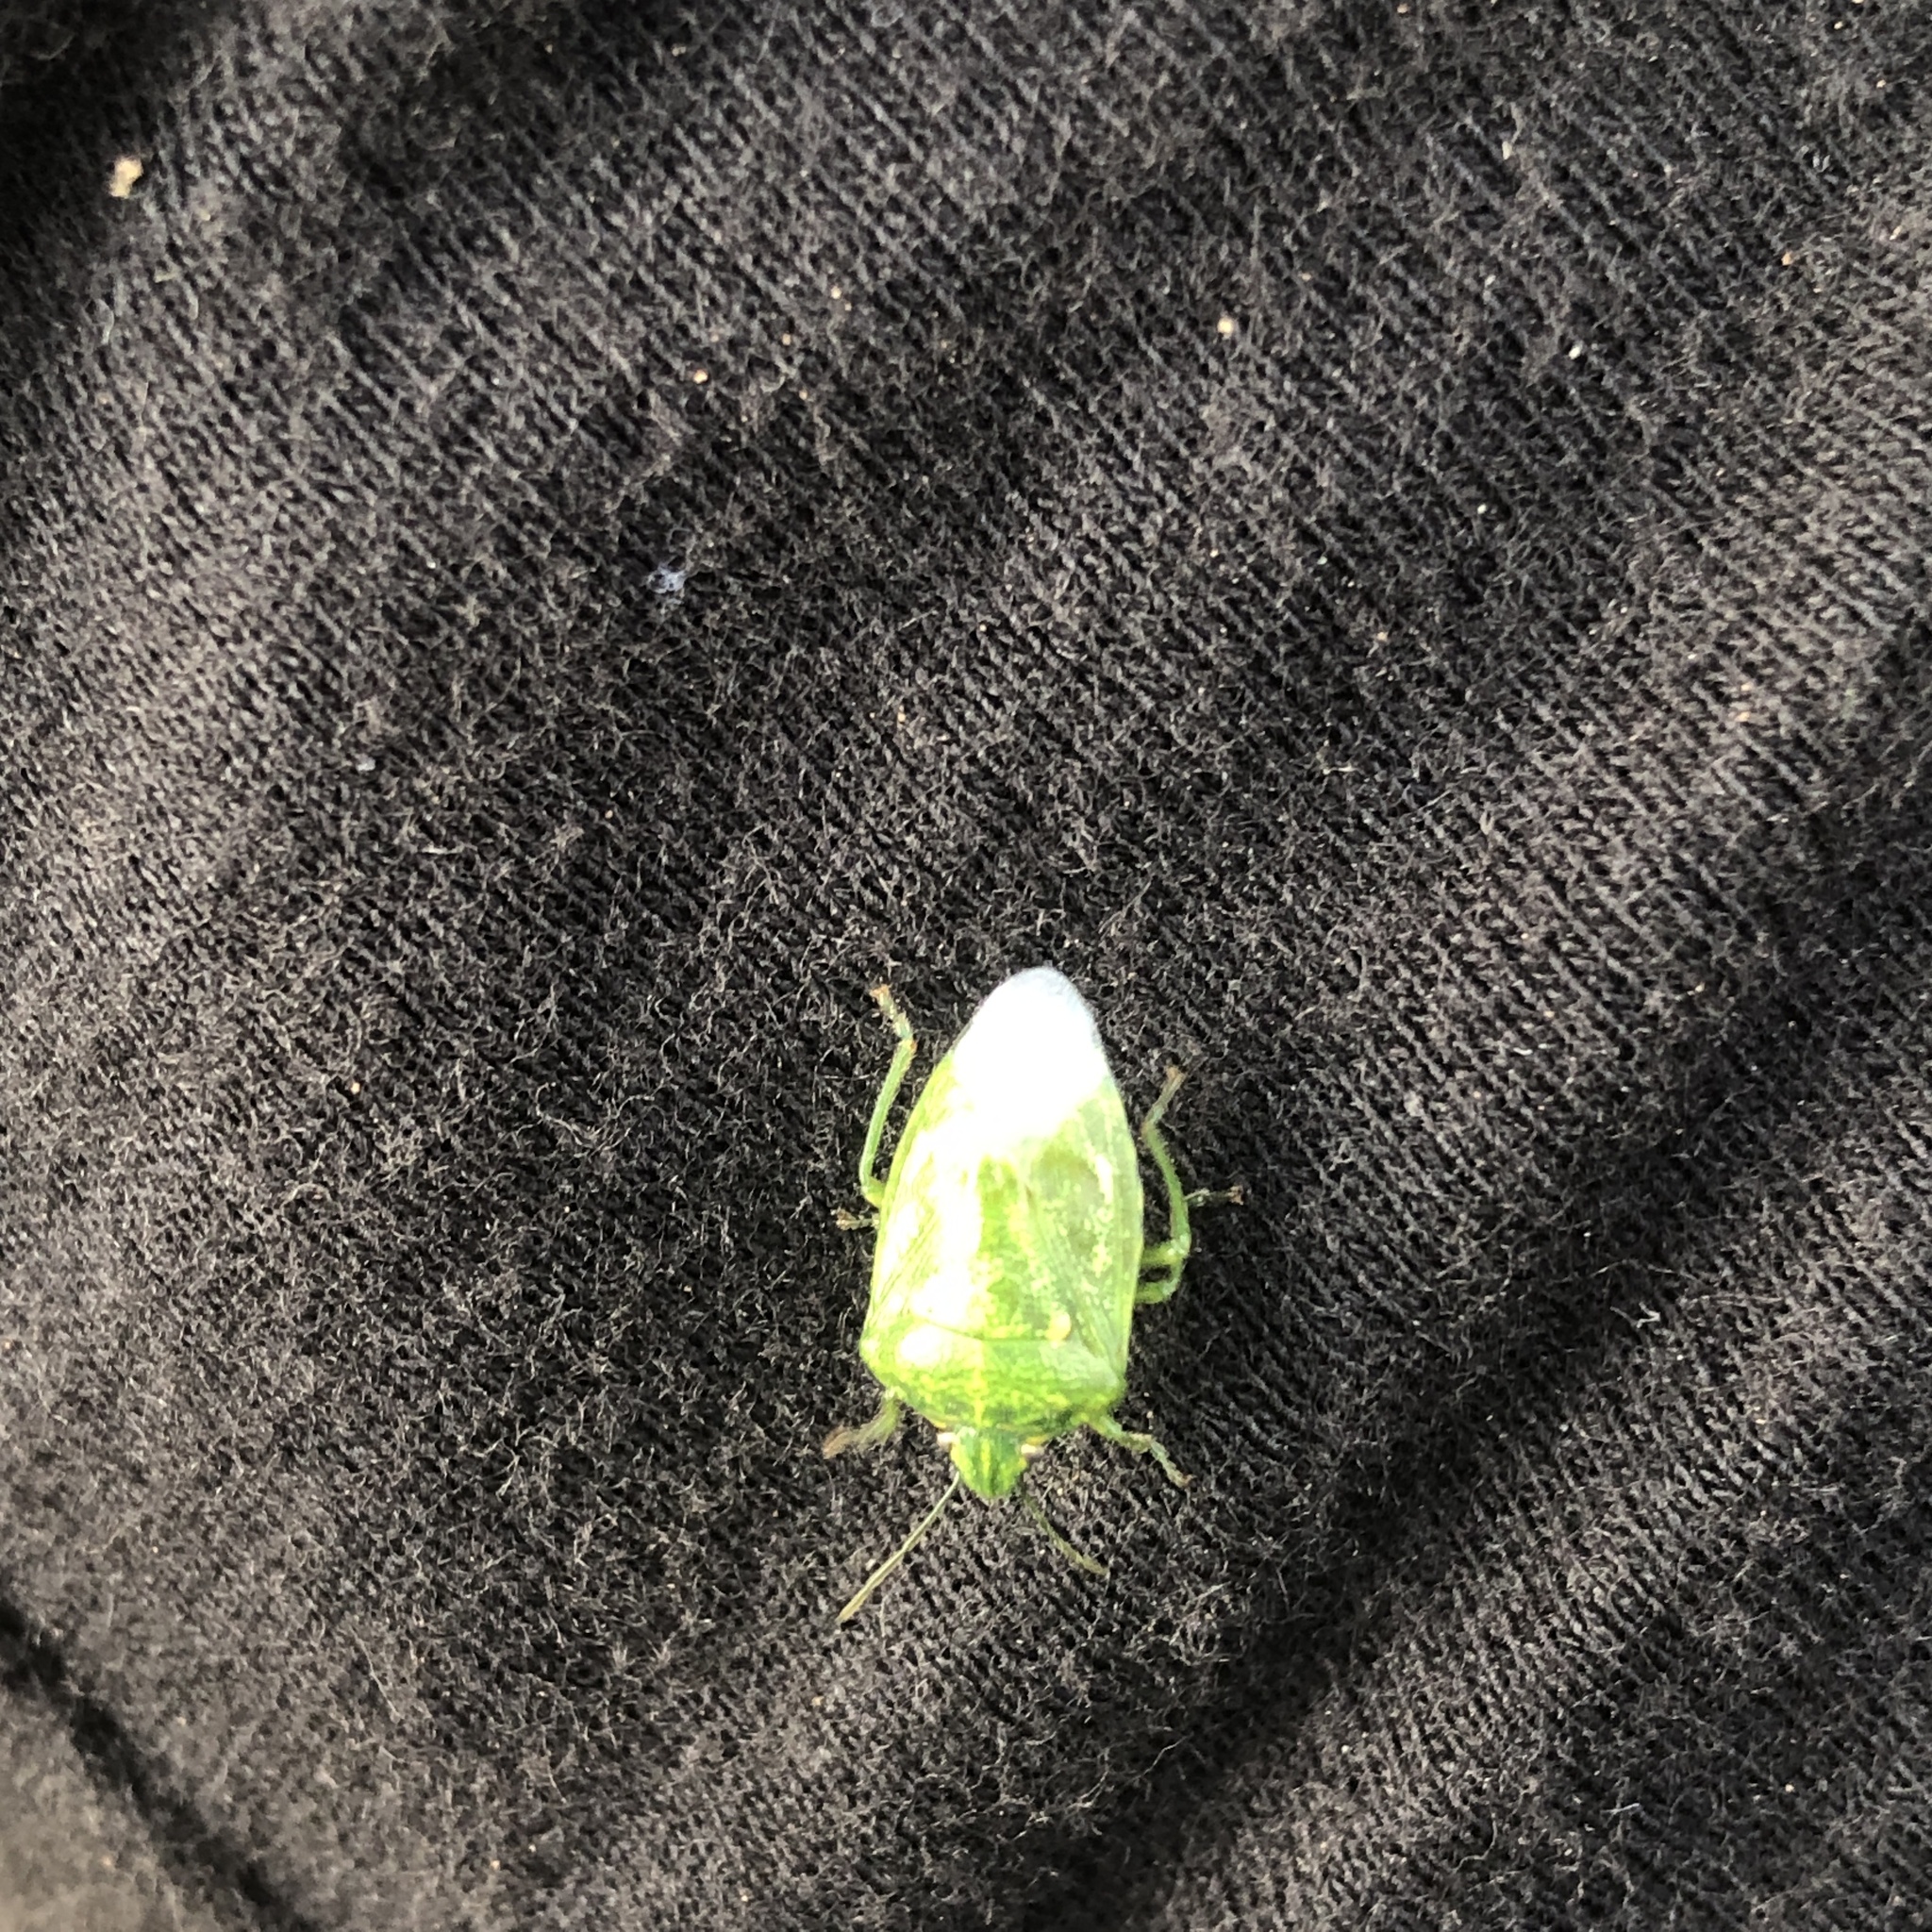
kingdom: Animalia
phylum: Arthropoda
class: Insecta
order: Hemiptera
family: Pentatomidae
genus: Banasa
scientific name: Banasa euchlora
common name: Cedar berry bug
